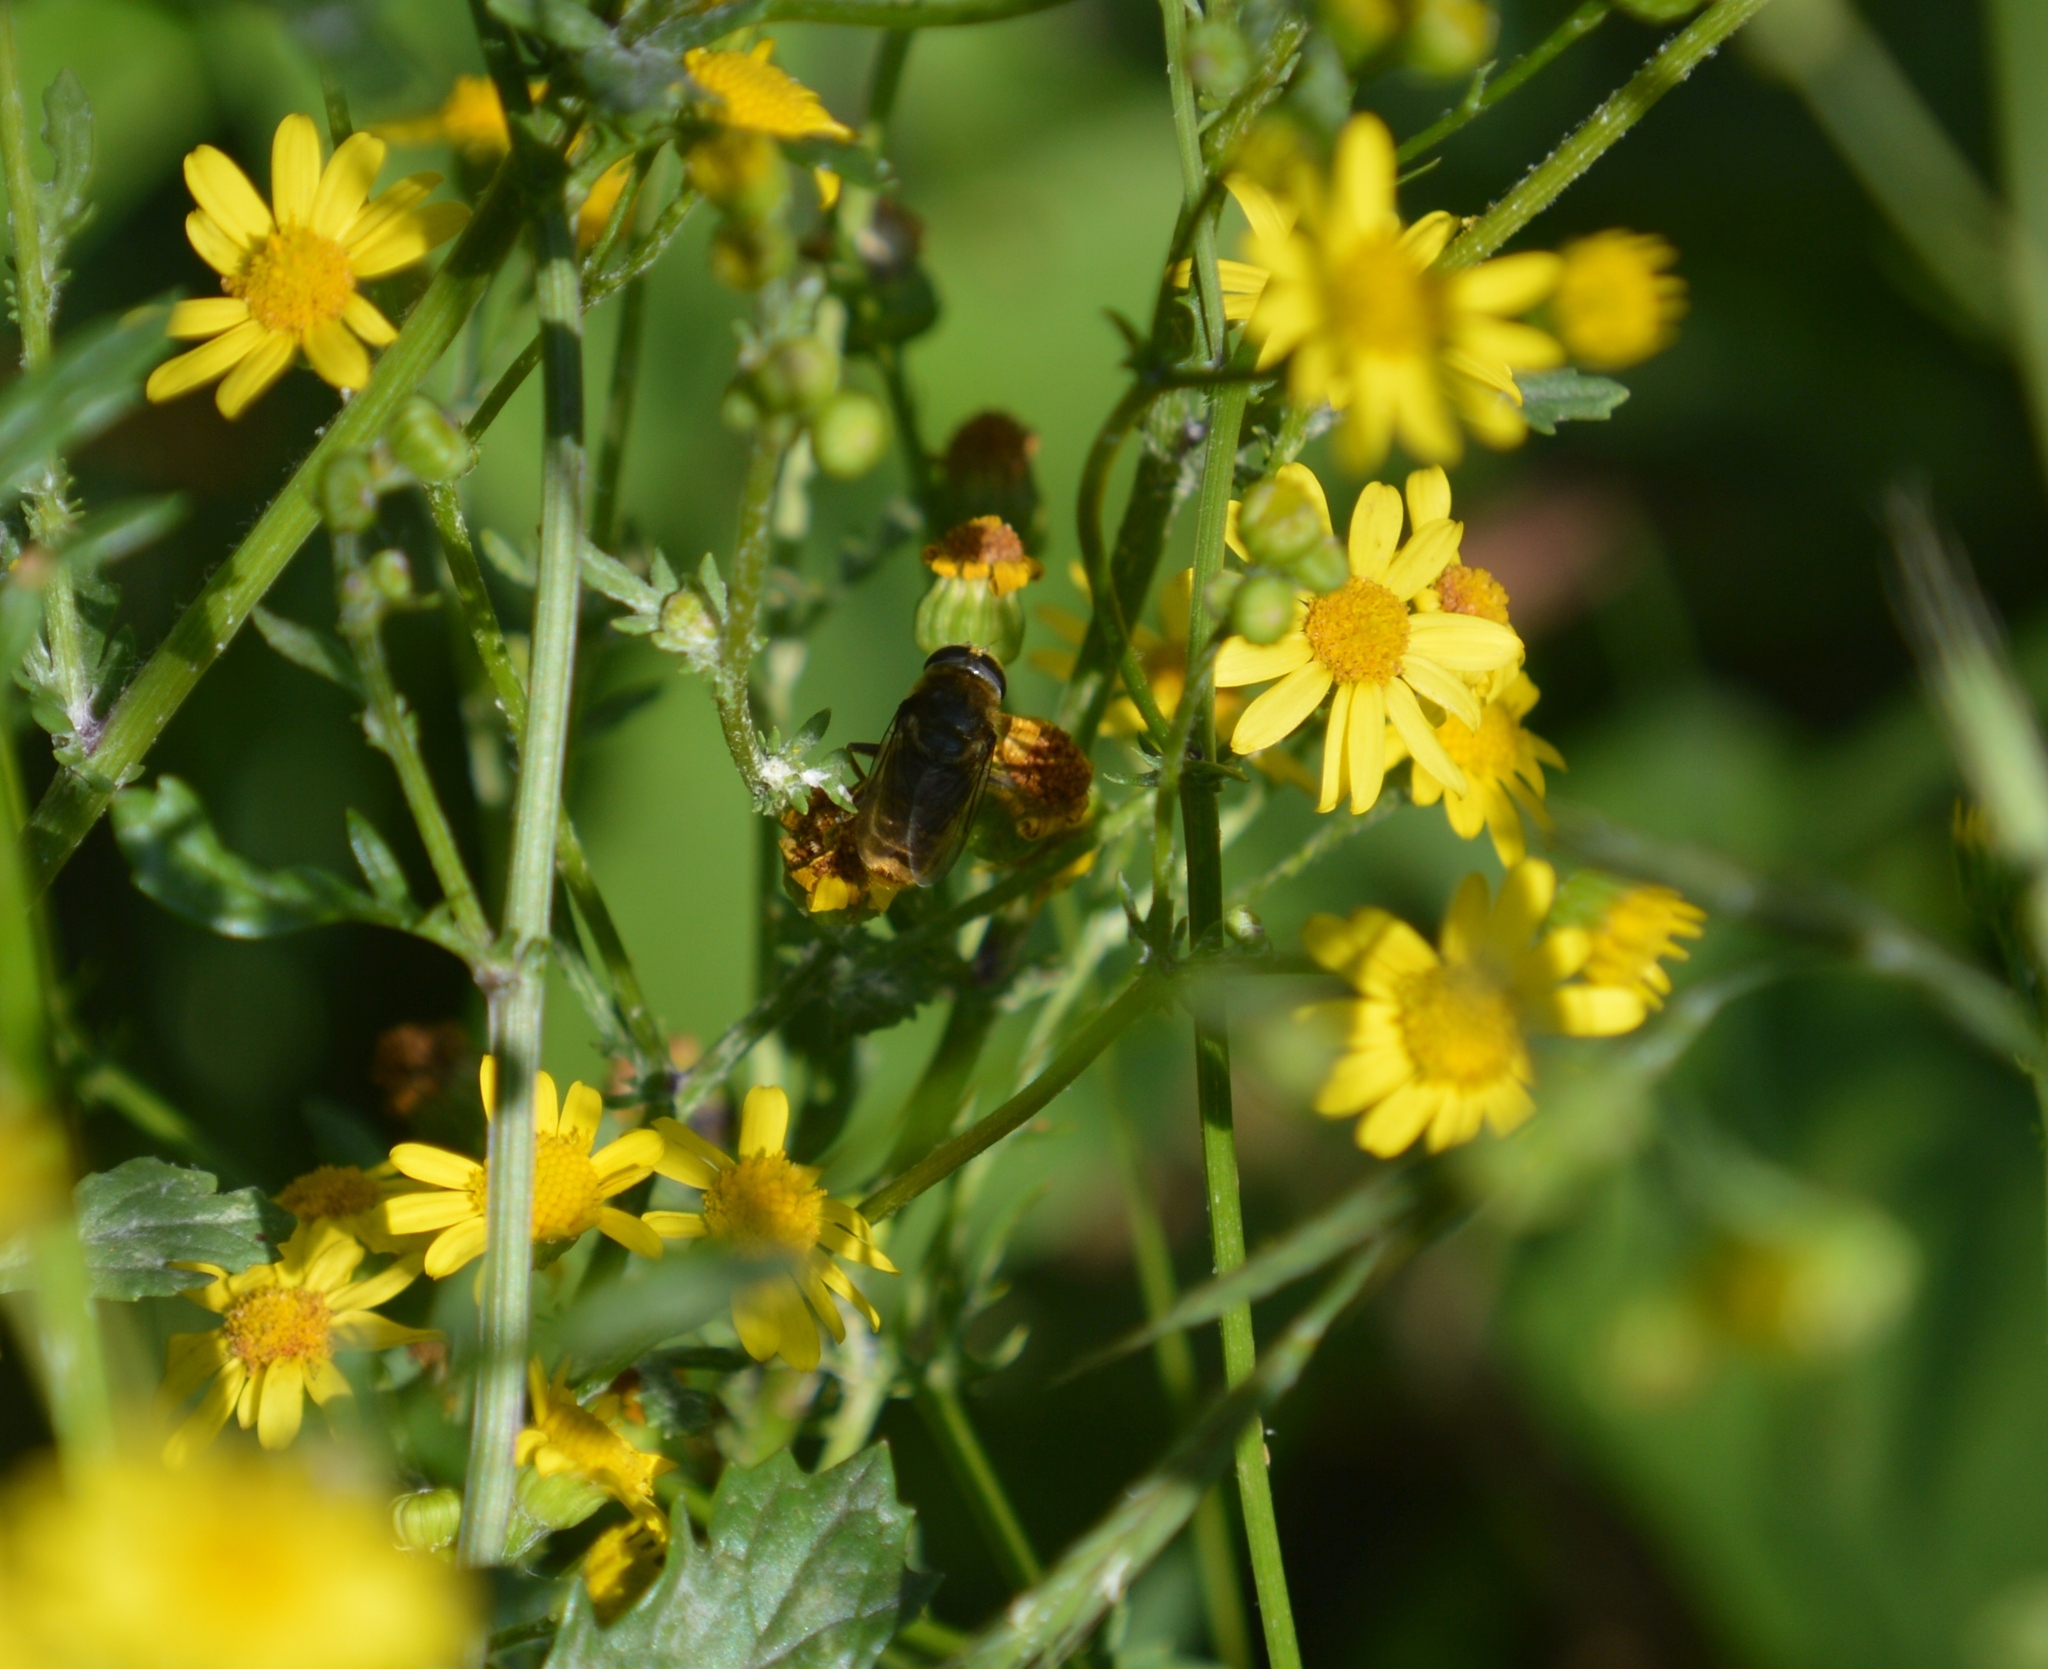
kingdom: Animalia
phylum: Arthropoda
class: Insecta
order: Diptera
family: Syrphidae
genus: Merodon
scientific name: Merodon constans
